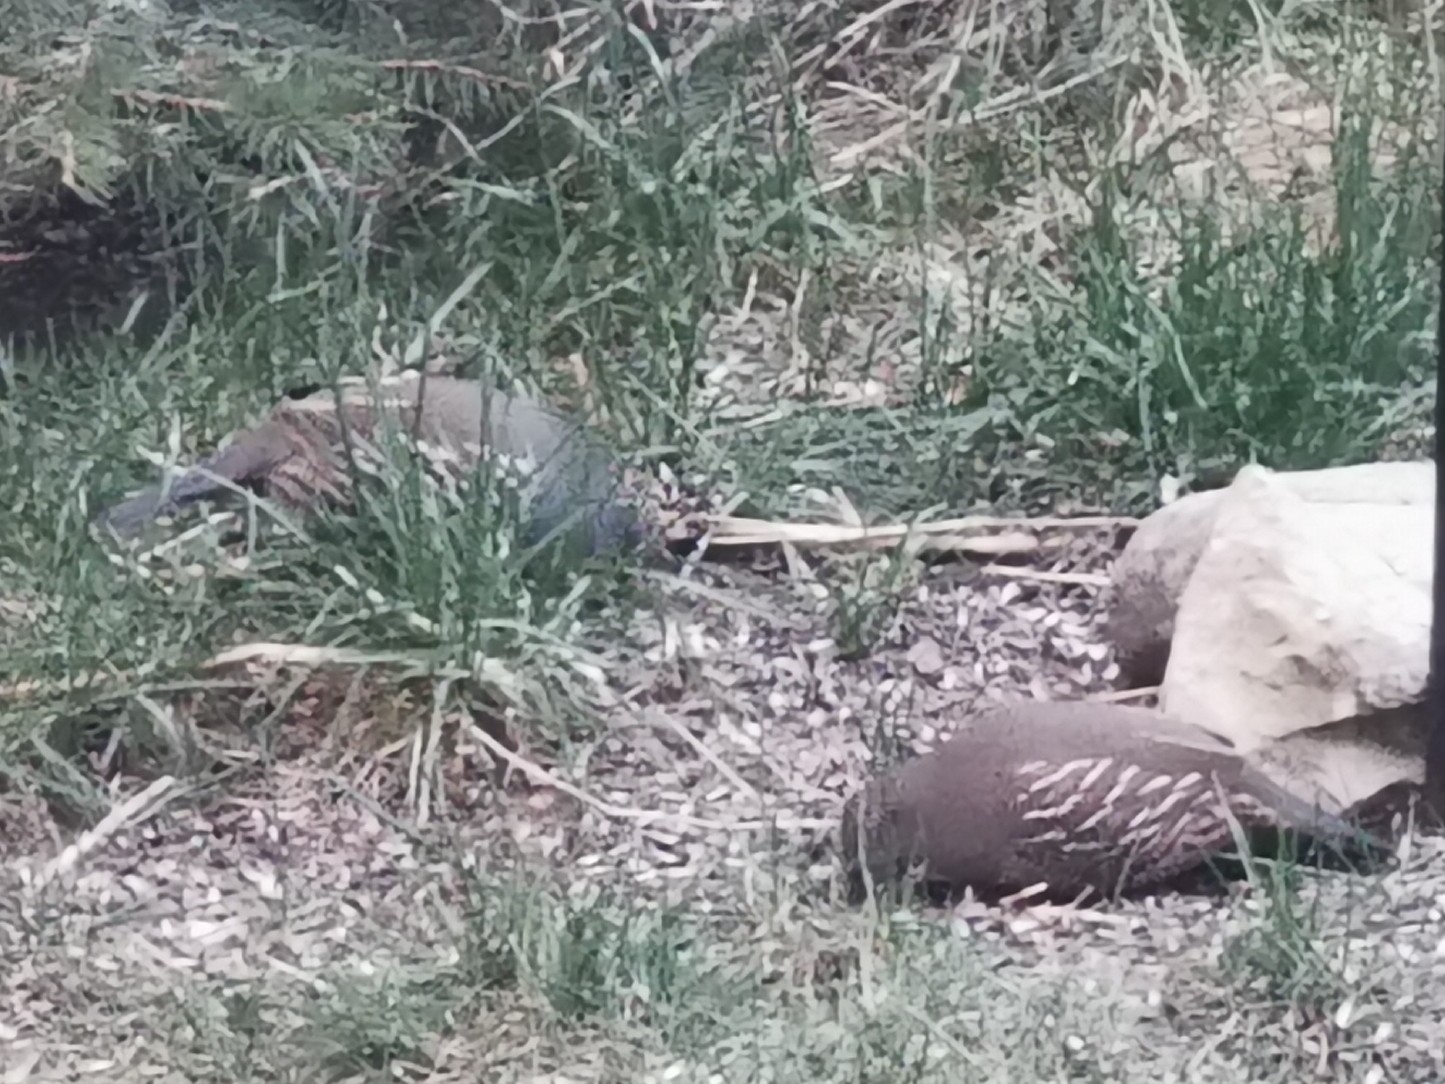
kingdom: Animalia
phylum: Chordata
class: Aves
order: Galliformes
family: Odontophoridae
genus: Callipepla
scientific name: Callipepla californica
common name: California quail
